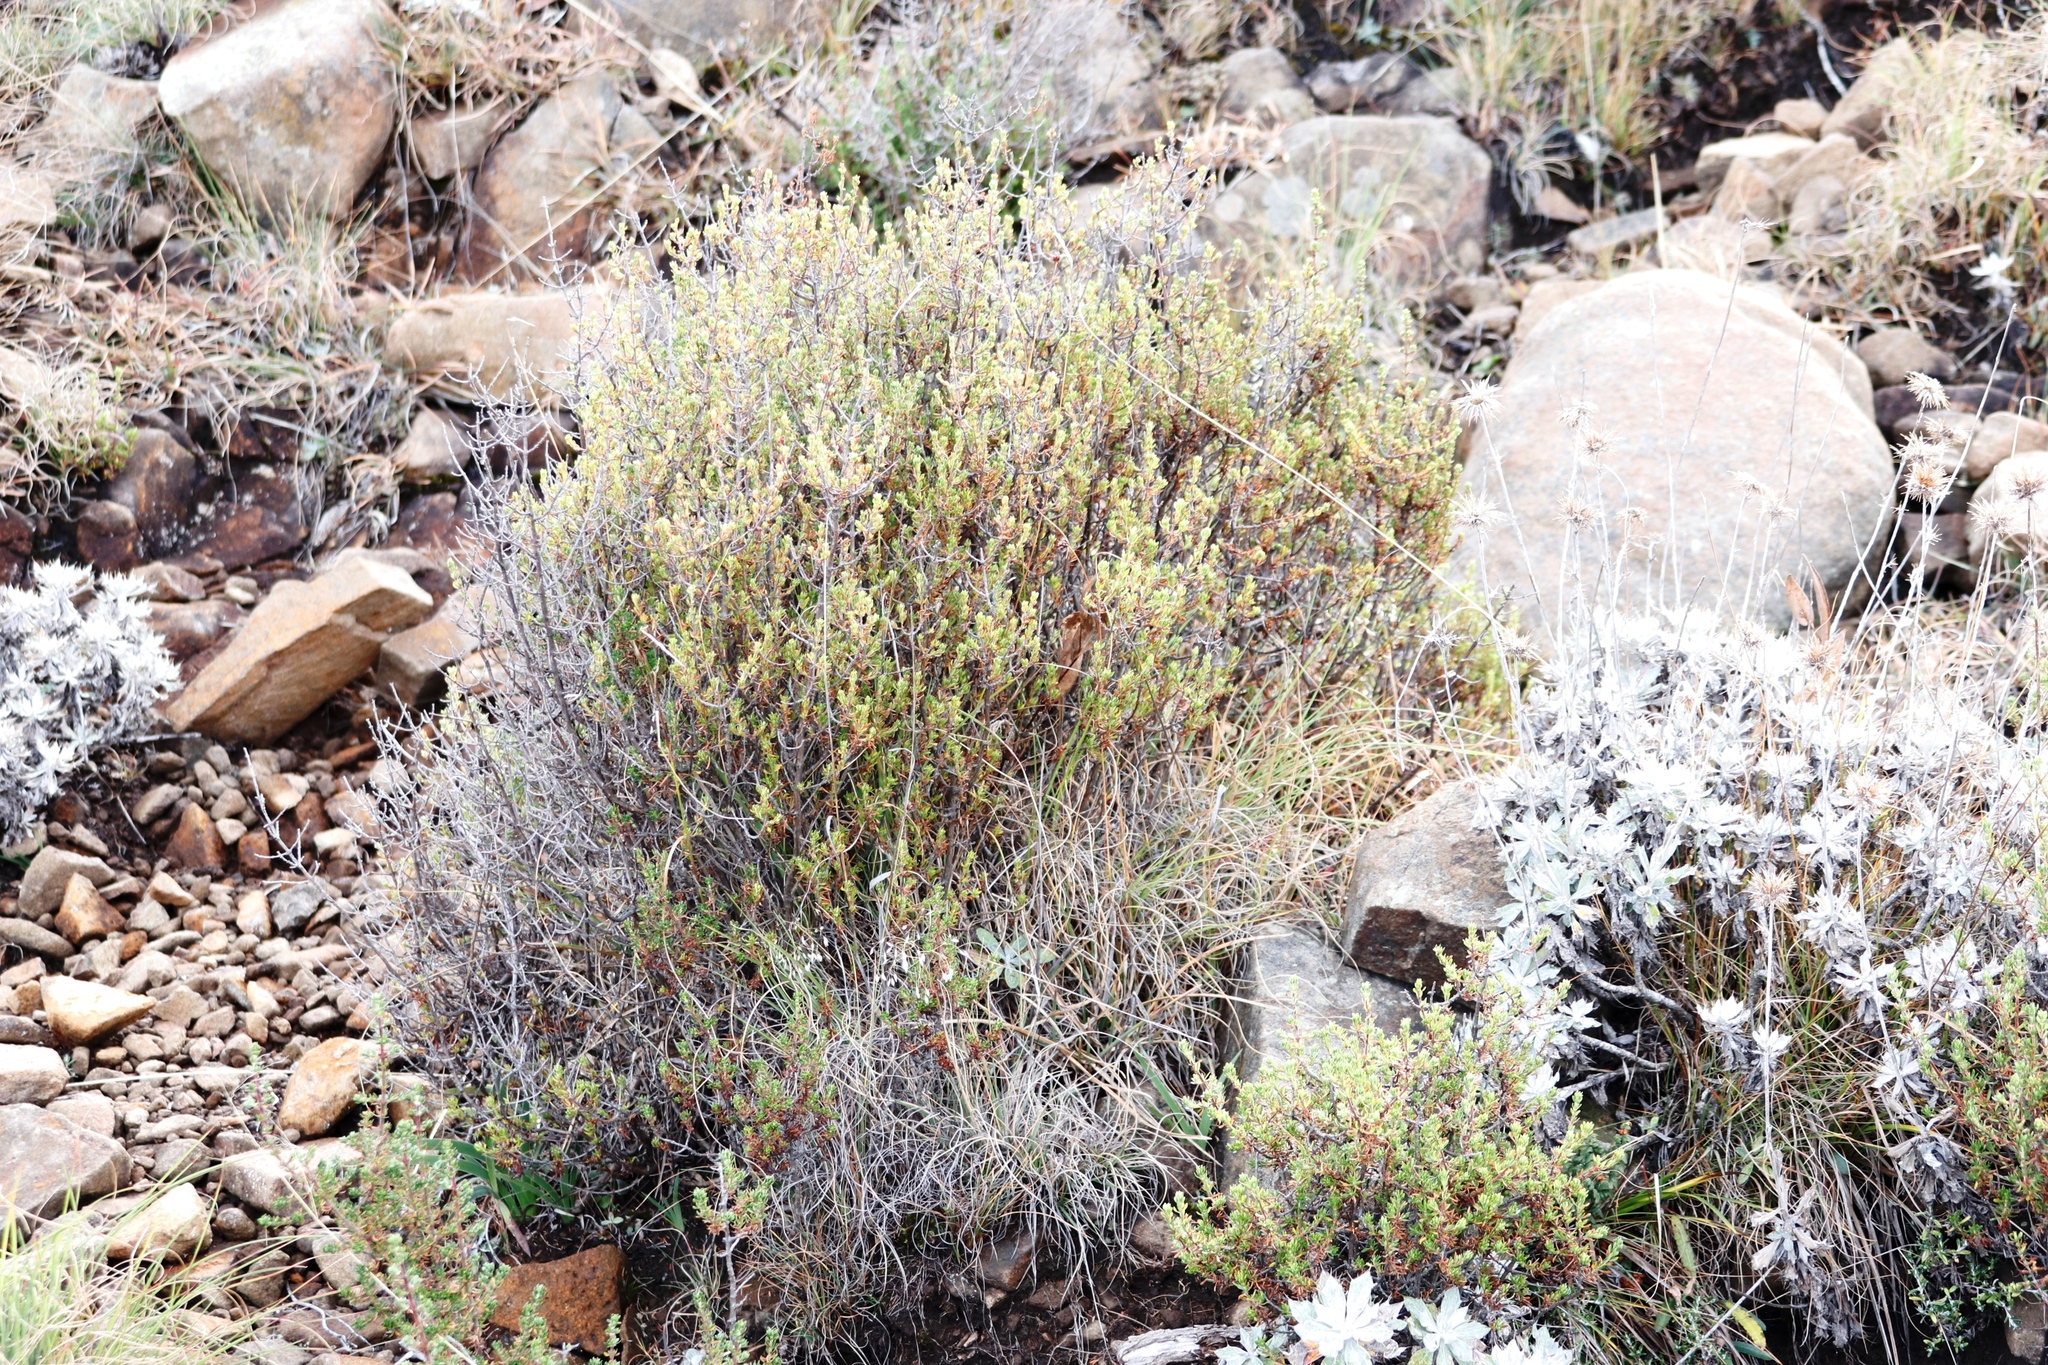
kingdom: Plantae
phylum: Tracheophyta
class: Magnoliopsida
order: Rosales
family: Rosaceae
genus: Cliffortia
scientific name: Cliffortia nitidula
